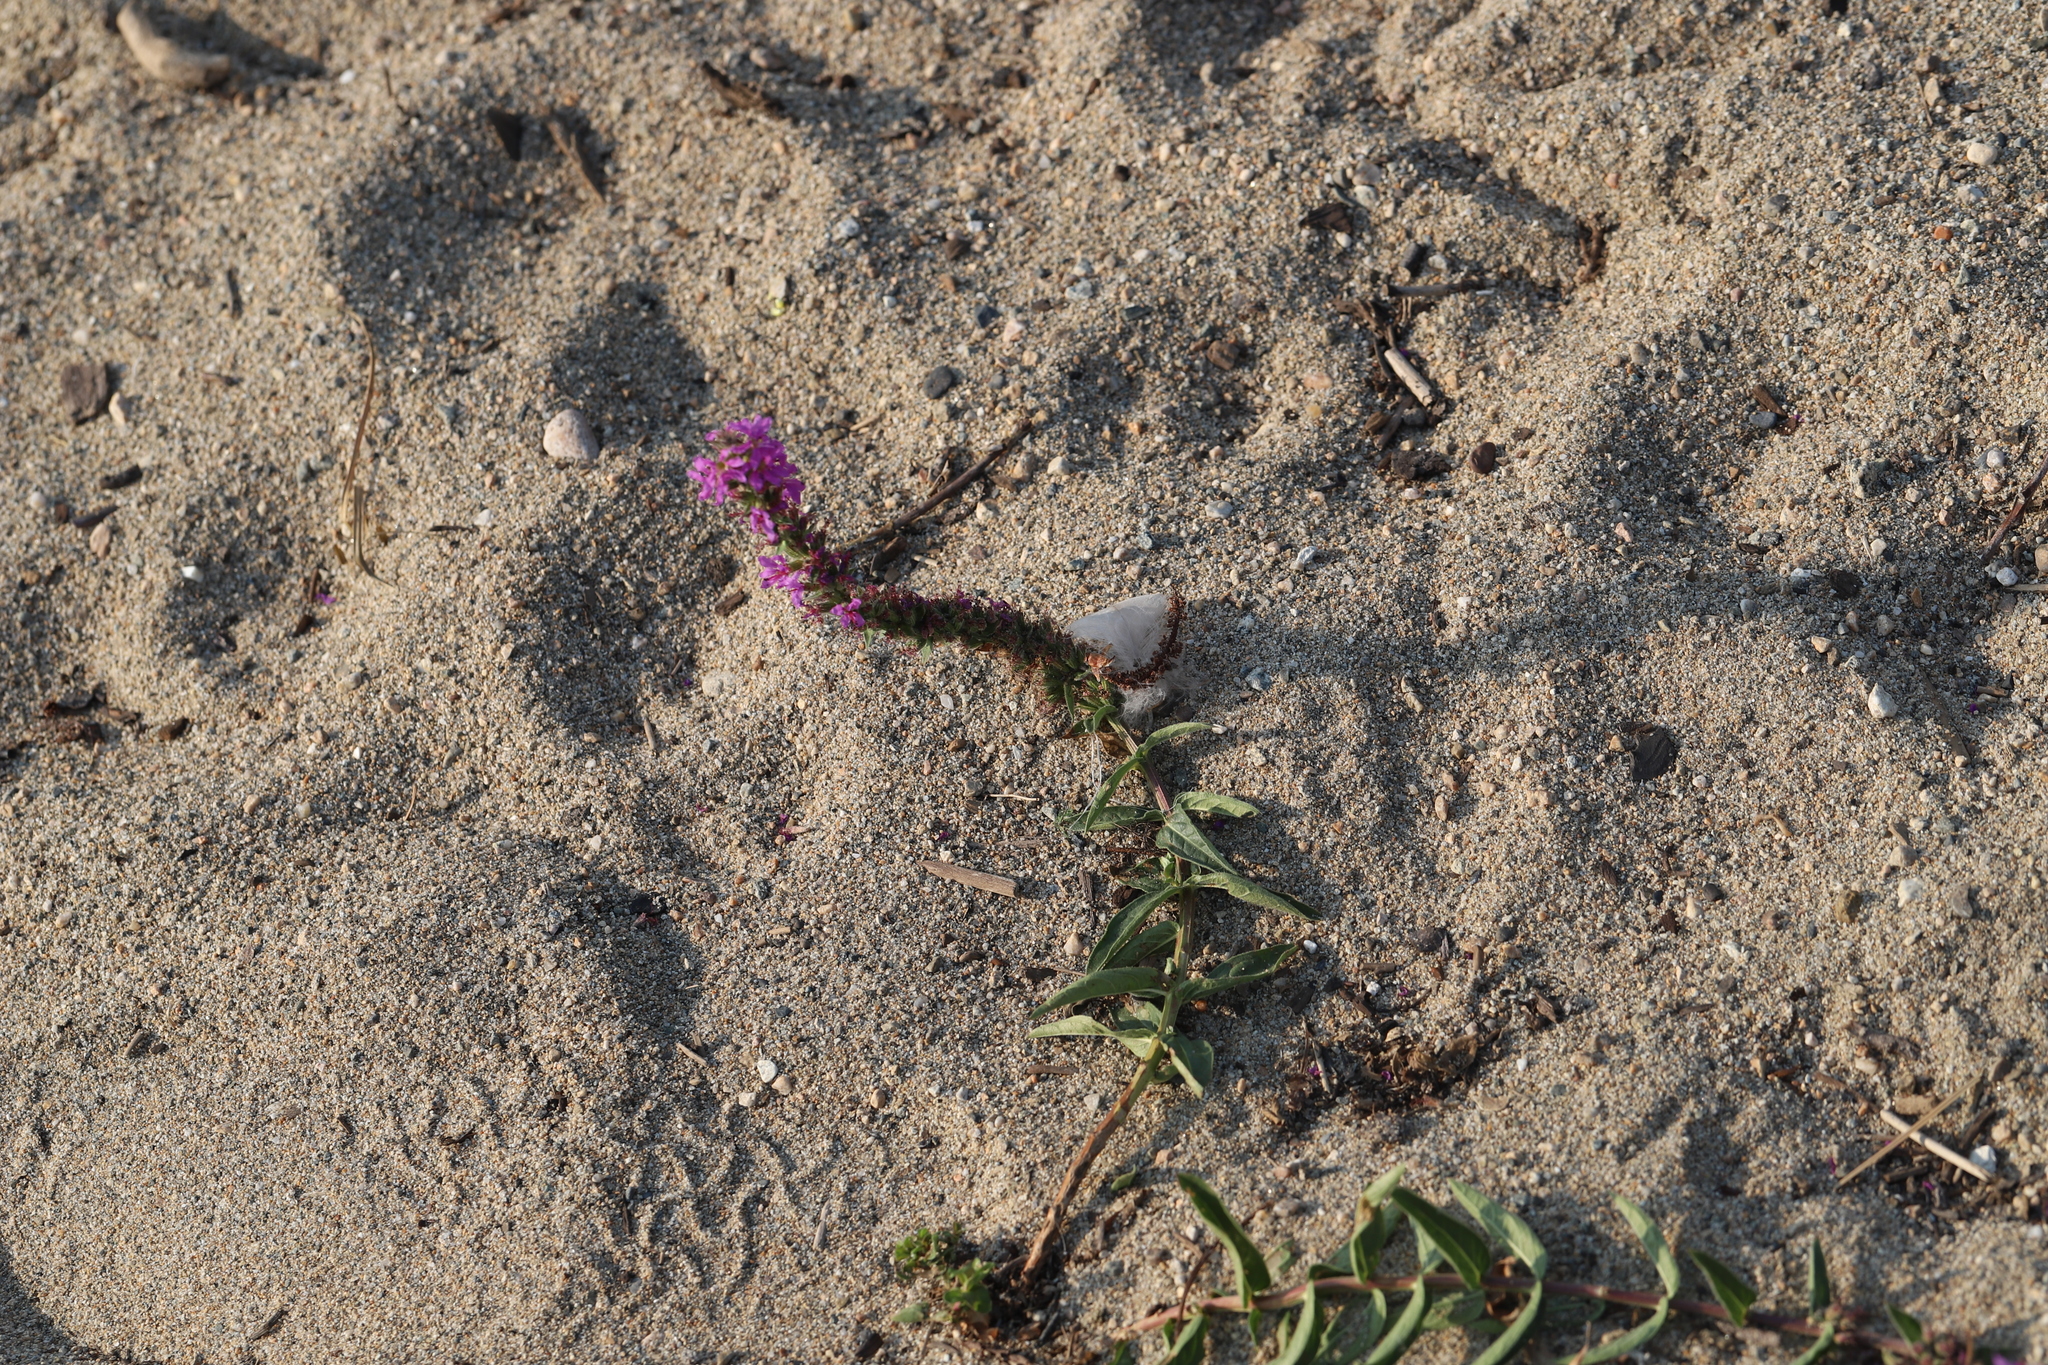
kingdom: Plantae
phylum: Tracheophyta
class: Magnoliopsida
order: Myrtales
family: Lythraceae
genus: Lythrum
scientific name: Lythrum salicaria
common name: Purple loosestrife
